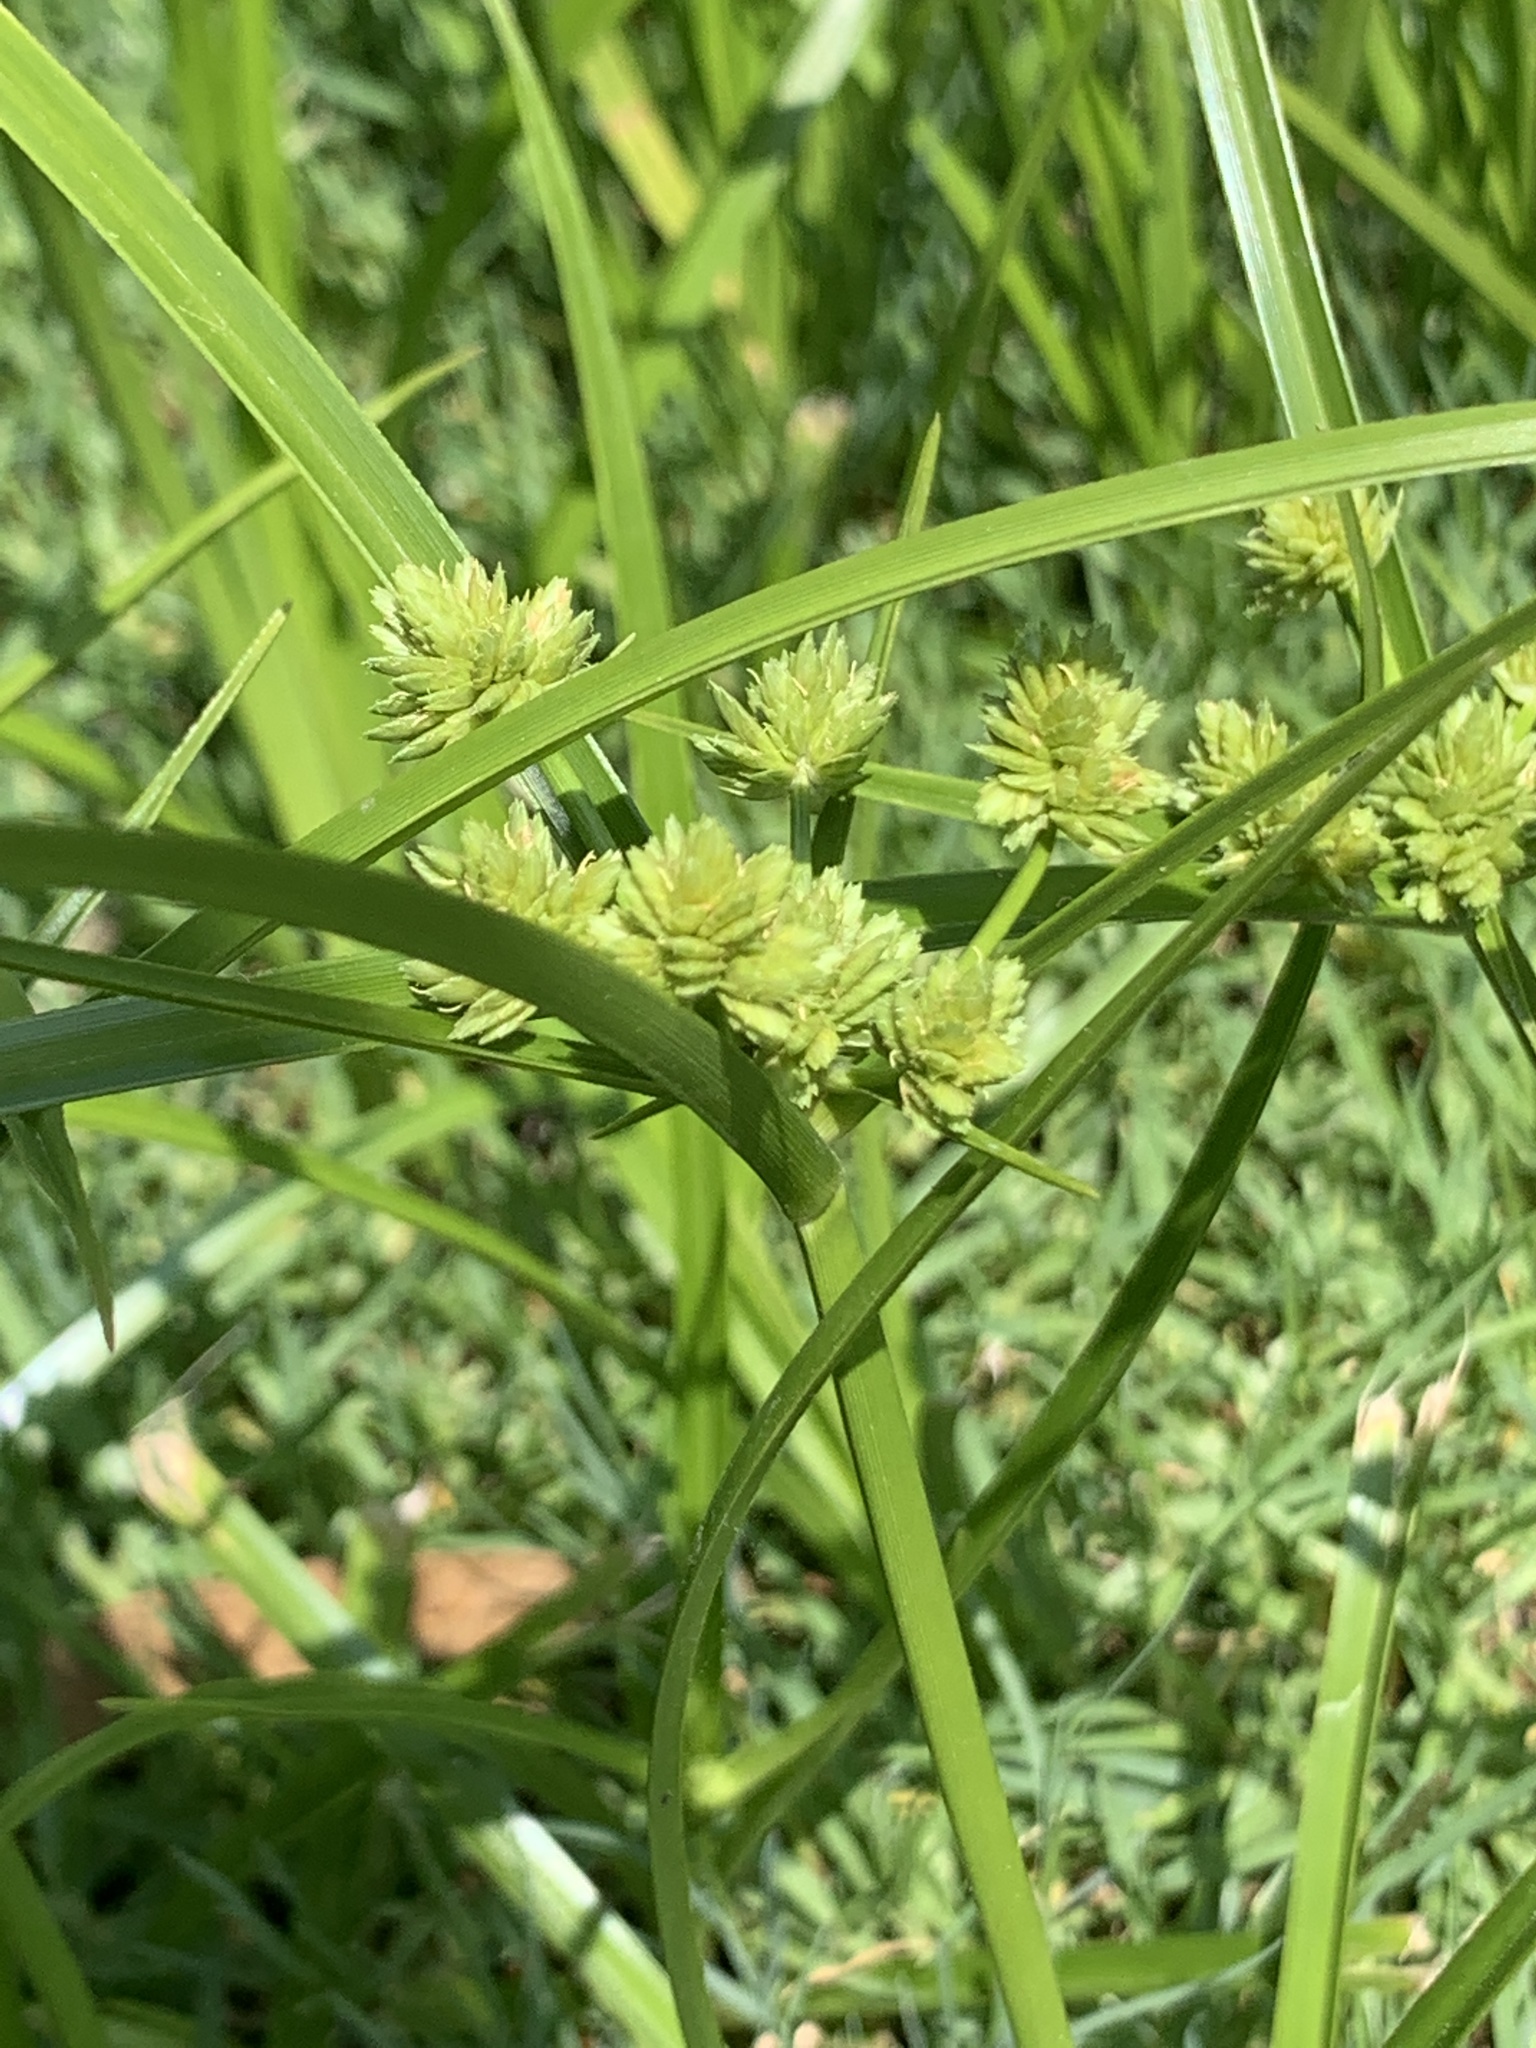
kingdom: Plantae
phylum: Tracheophyta
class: Liliopsida
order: Poales
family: Cyperaceae
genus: Cyperus
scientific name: Cyperus eragrostis
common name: Tall flatsedge
